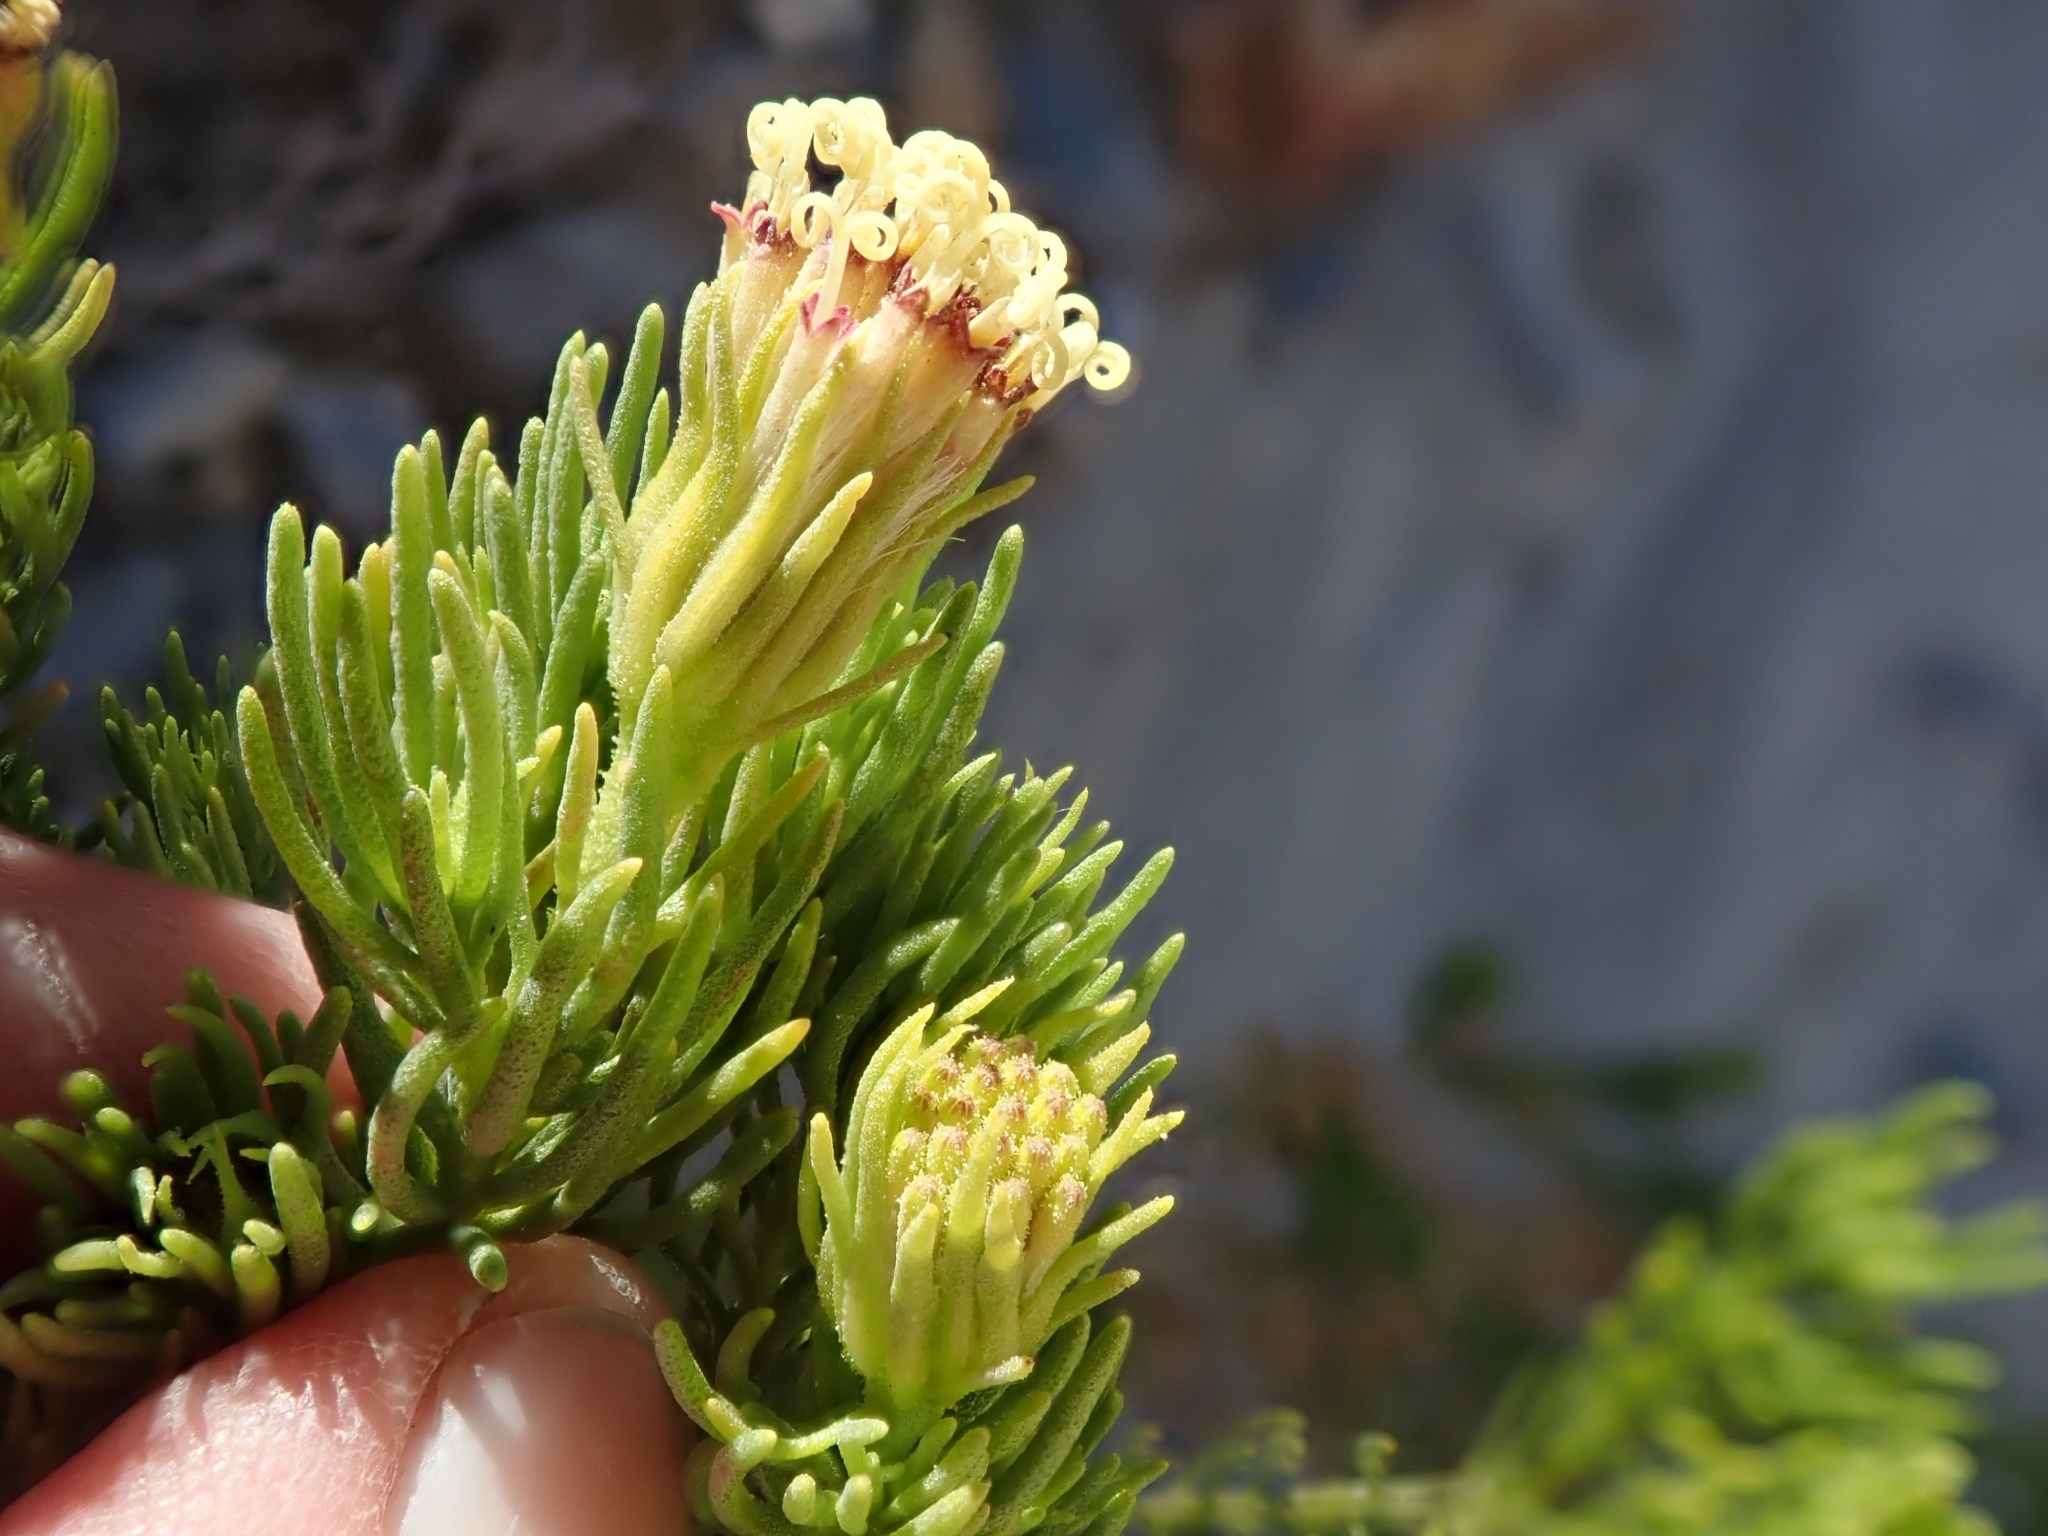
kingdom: Plantae
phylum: Tracheophyta
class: Magnoliopsida
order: Asterales
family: Asteraceae
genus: Peucephyllum
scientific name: Peucephyllum schottii
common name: Pygmy-cedar
